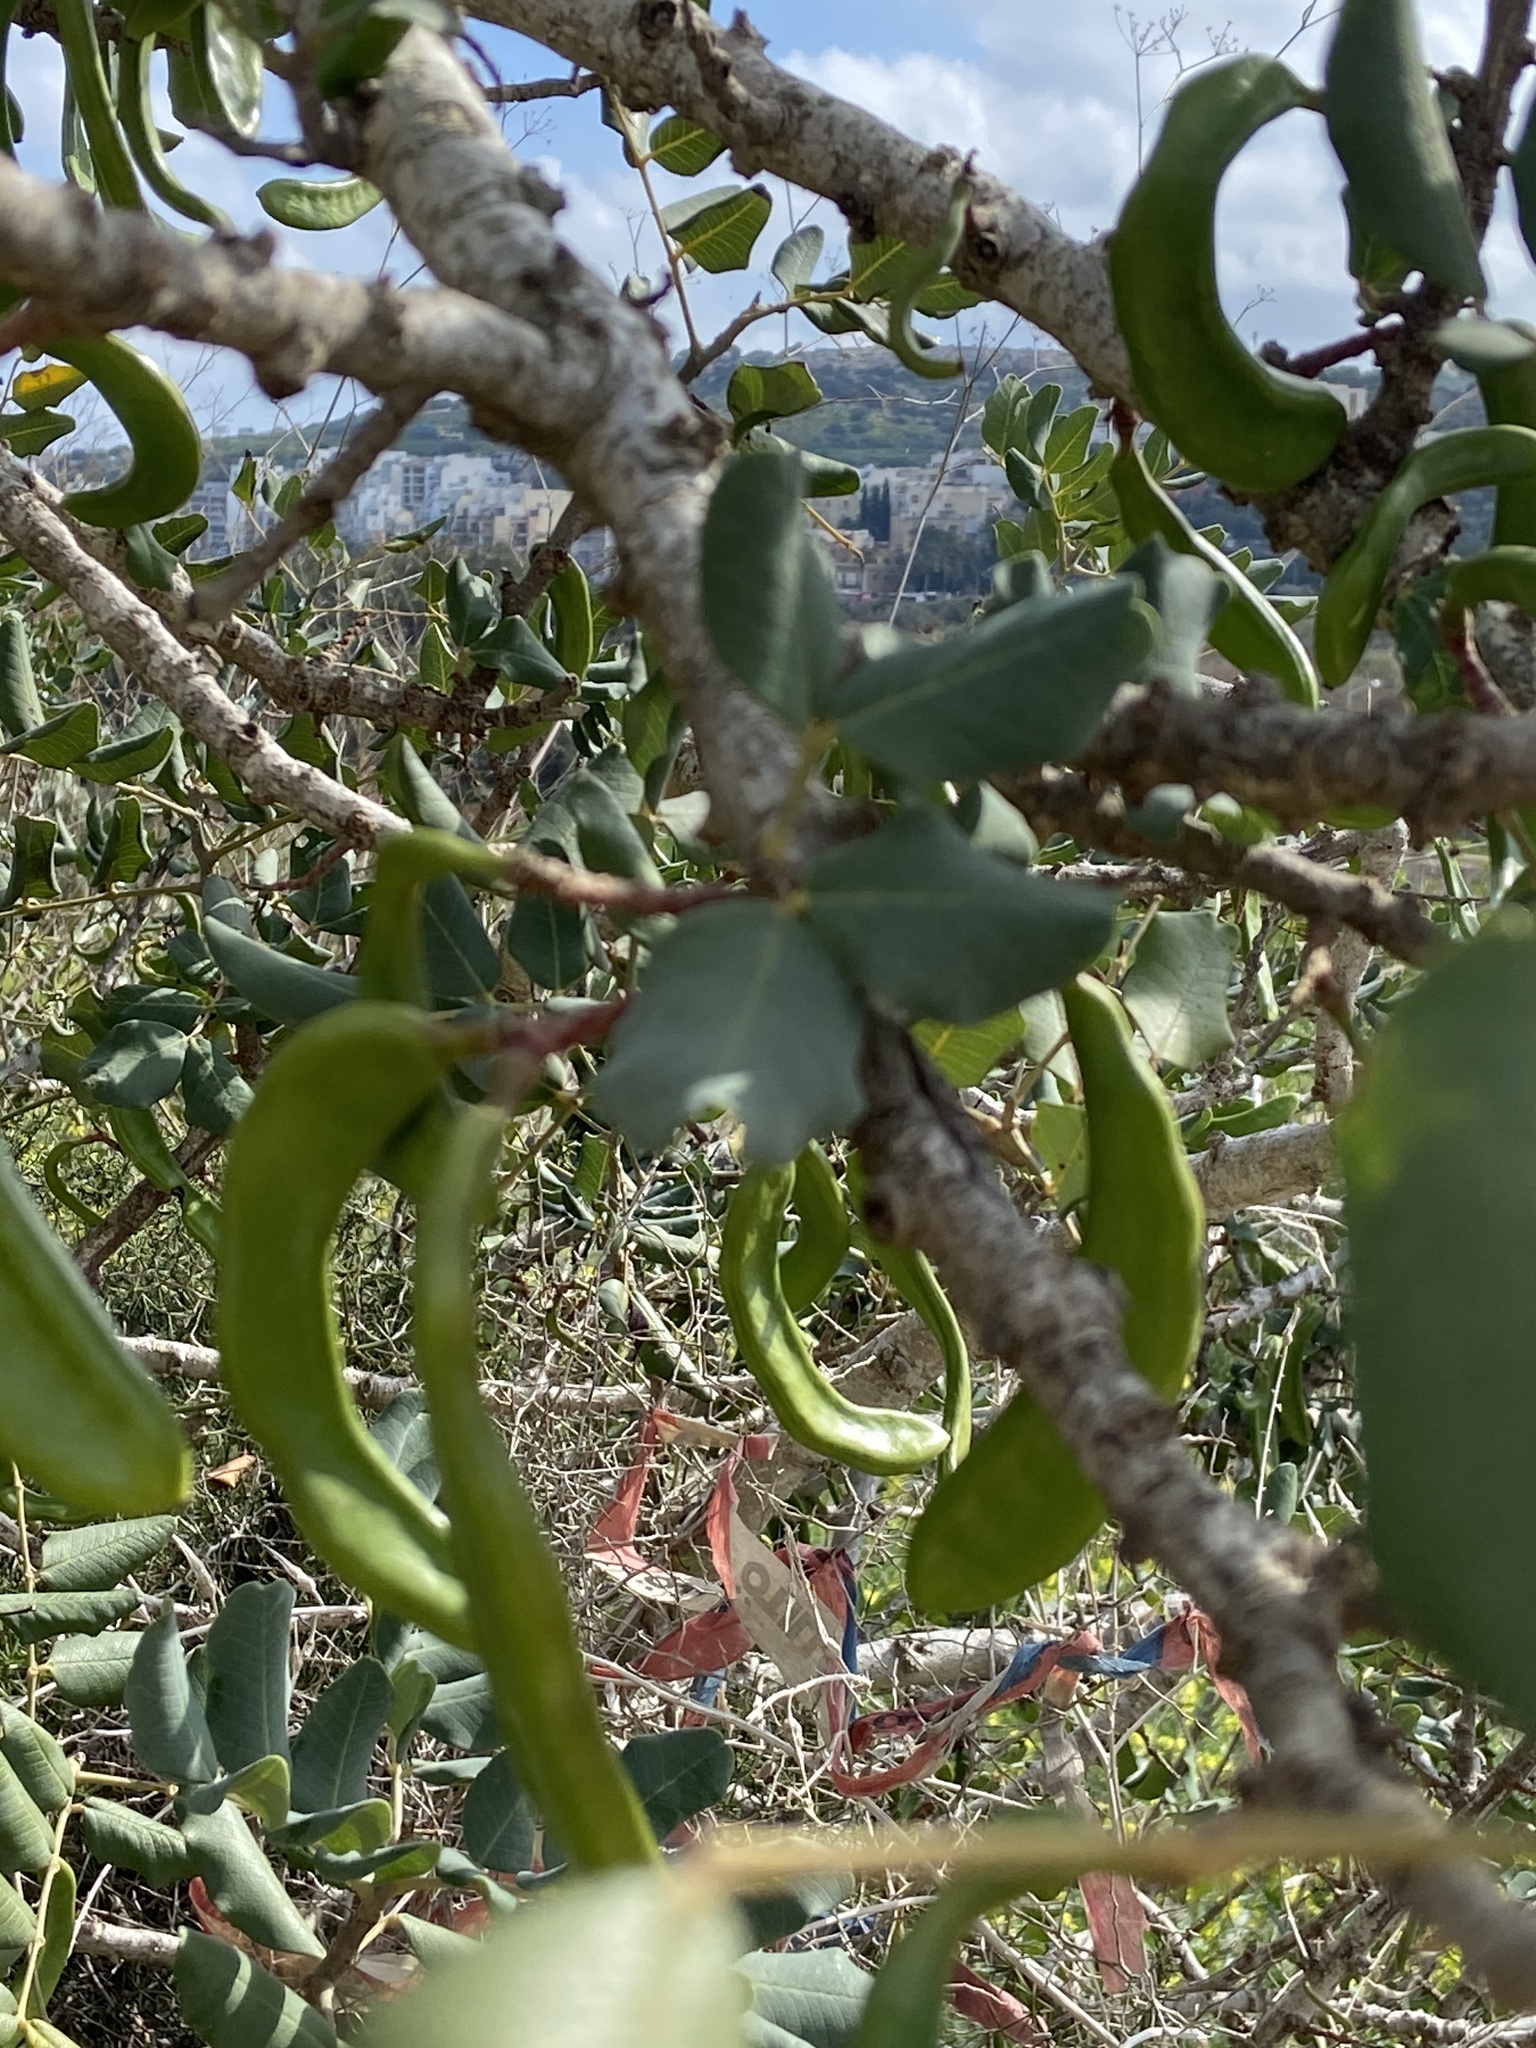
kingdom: Plantae
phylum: Tracheophyta
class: Magnoliopsida
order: Fabales
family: Fabaceae
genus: Ceratonia
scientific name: Ceratonia siliqua
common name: Carob
